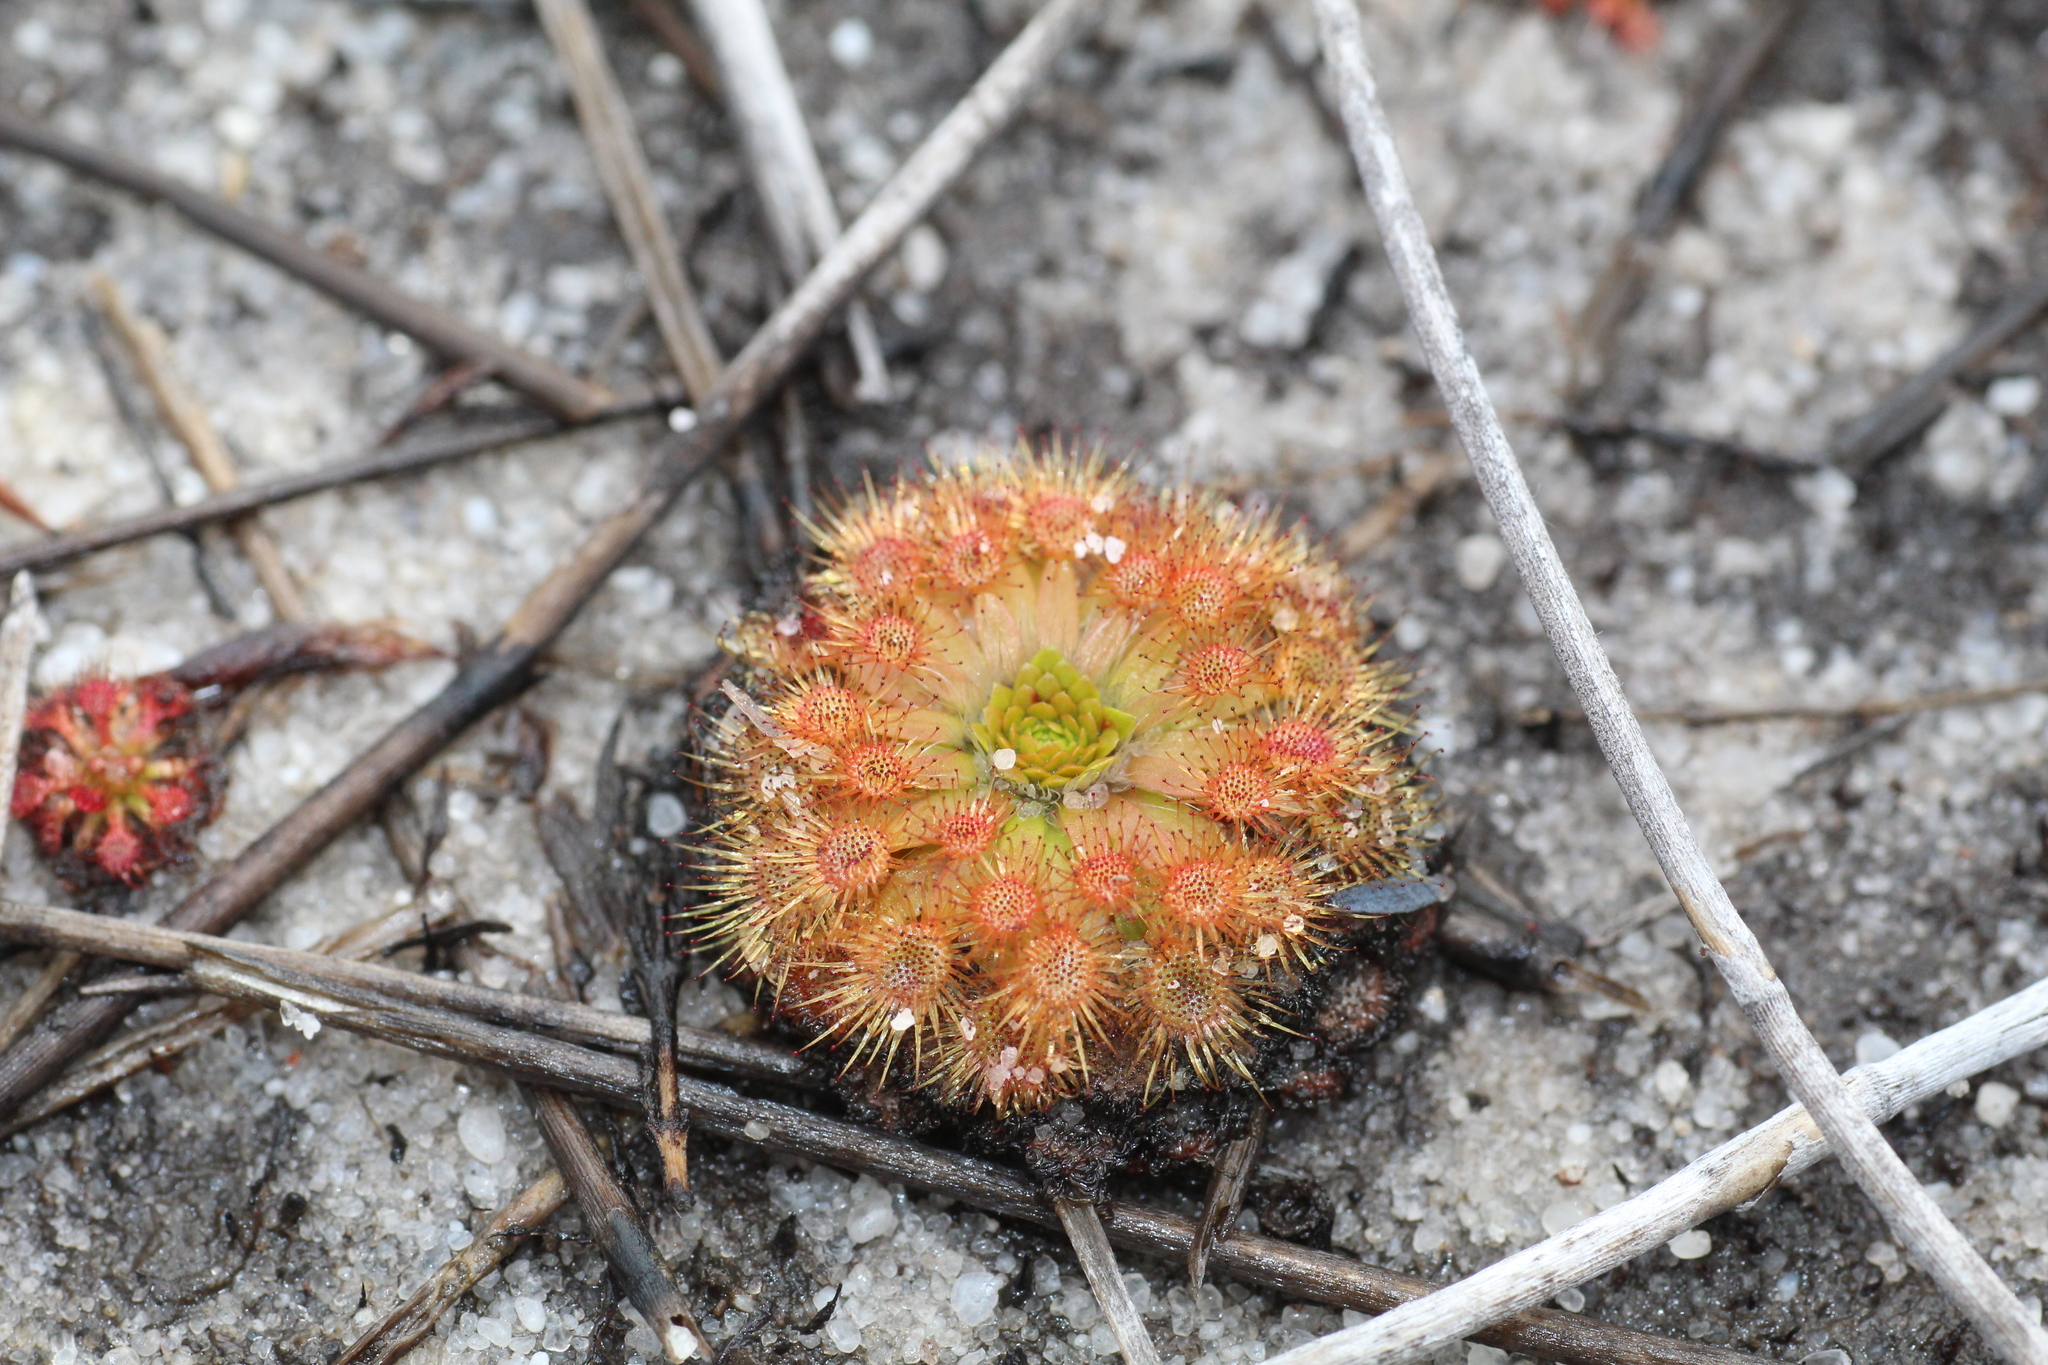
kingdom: Plantae
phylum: Tracheophyta
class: Magnoliopsida
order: Caryophyllales
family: Droseraceae
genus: Drosera
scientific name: Drosera sidjamesii
